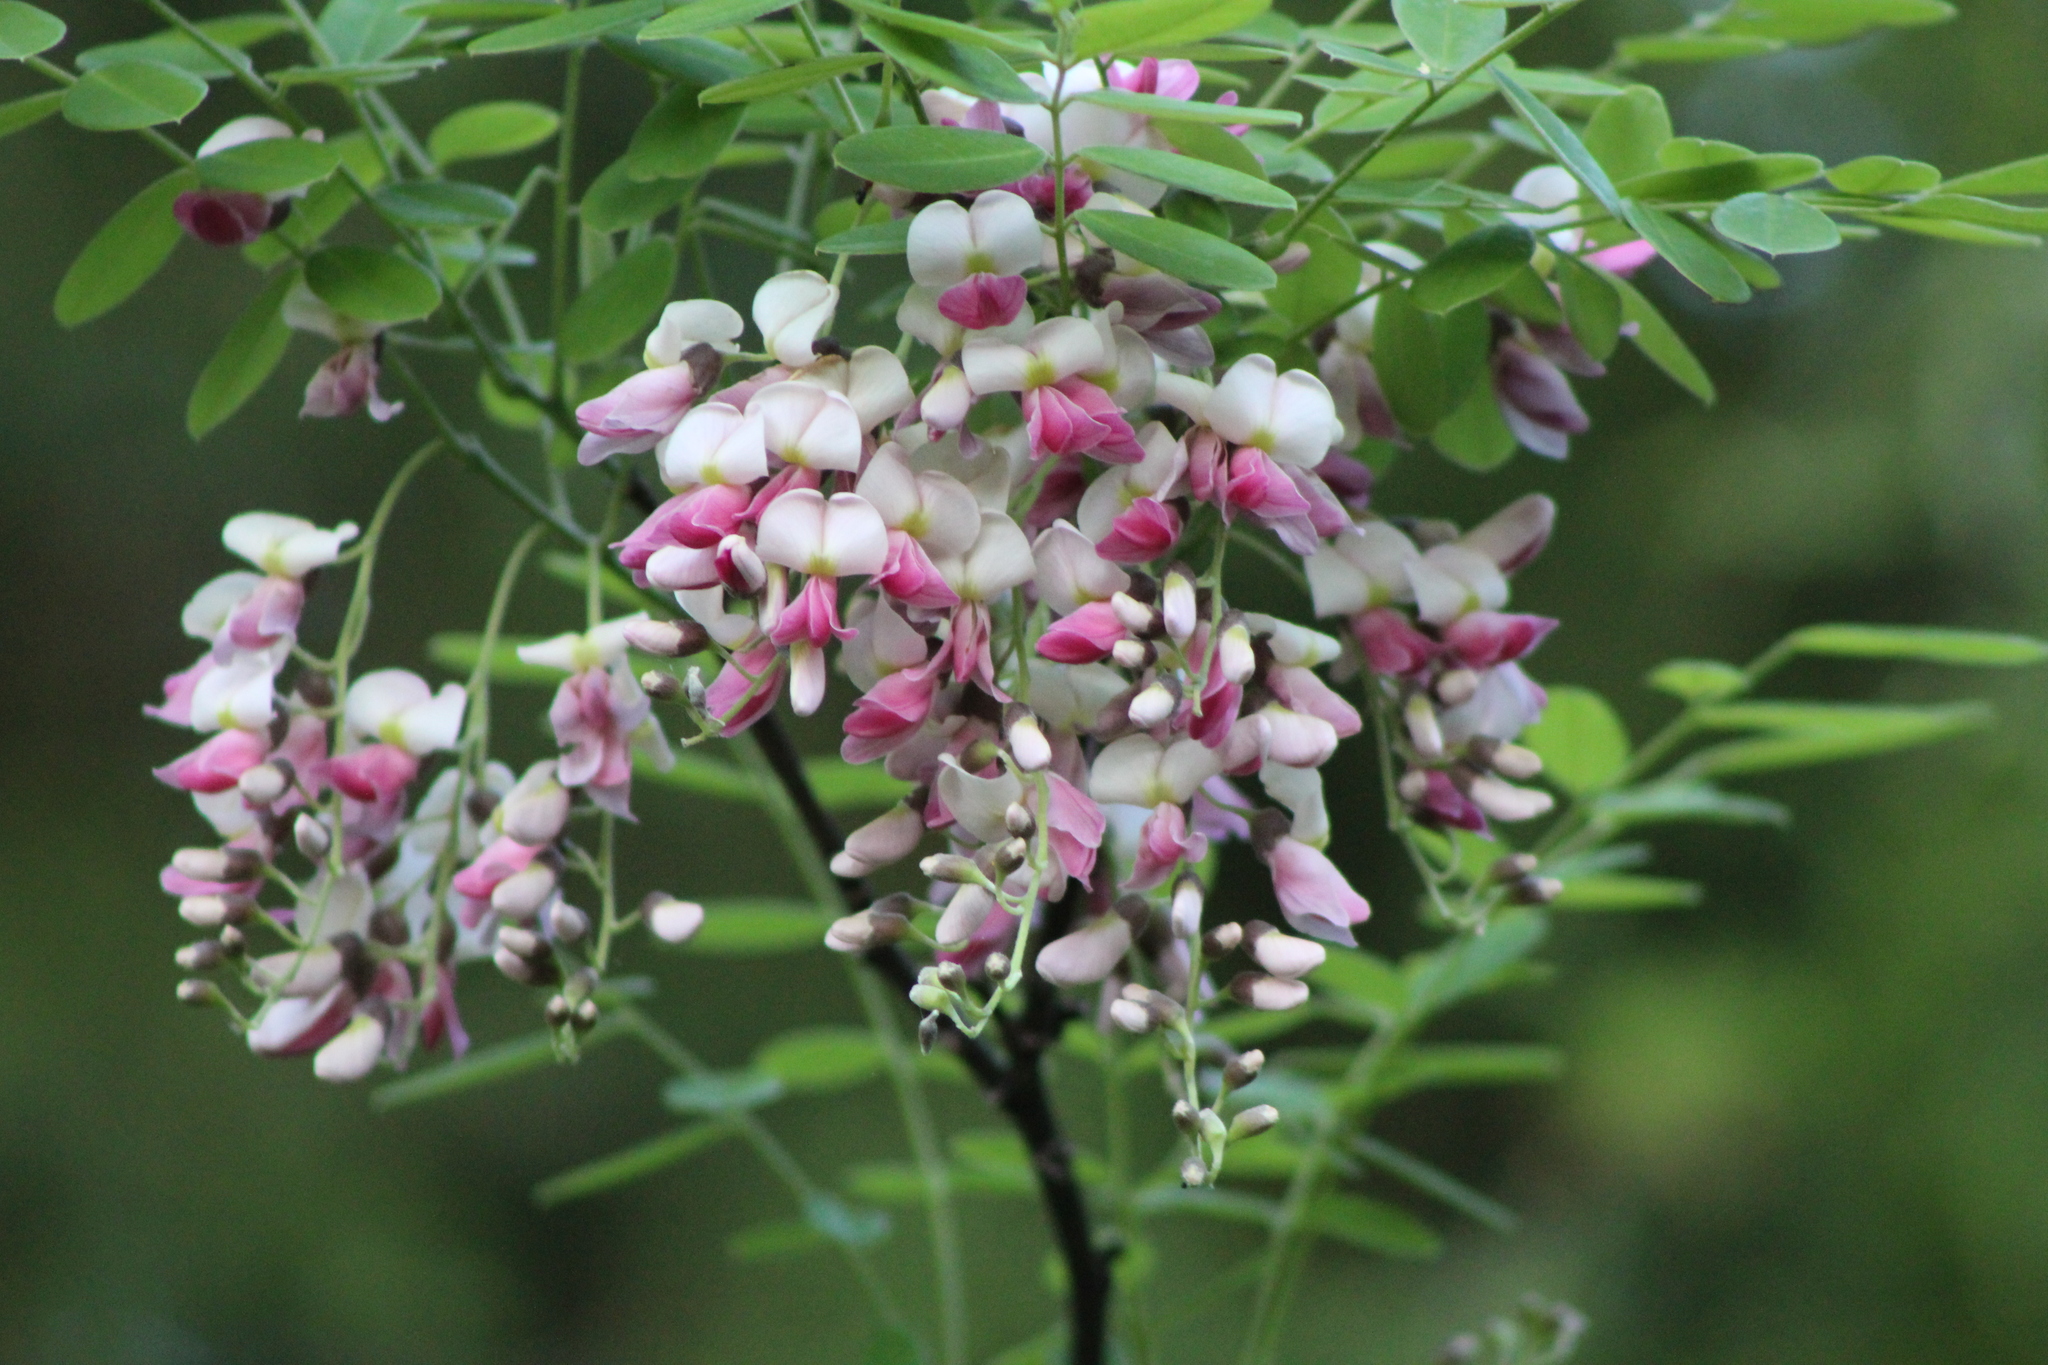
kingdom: Plantae
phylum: Tracheophyta
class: Magnoliopsida
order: Fabales
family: Fabaceae
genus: Styphnolobium
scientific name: Styphnolobium affine
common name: Texas sophora
